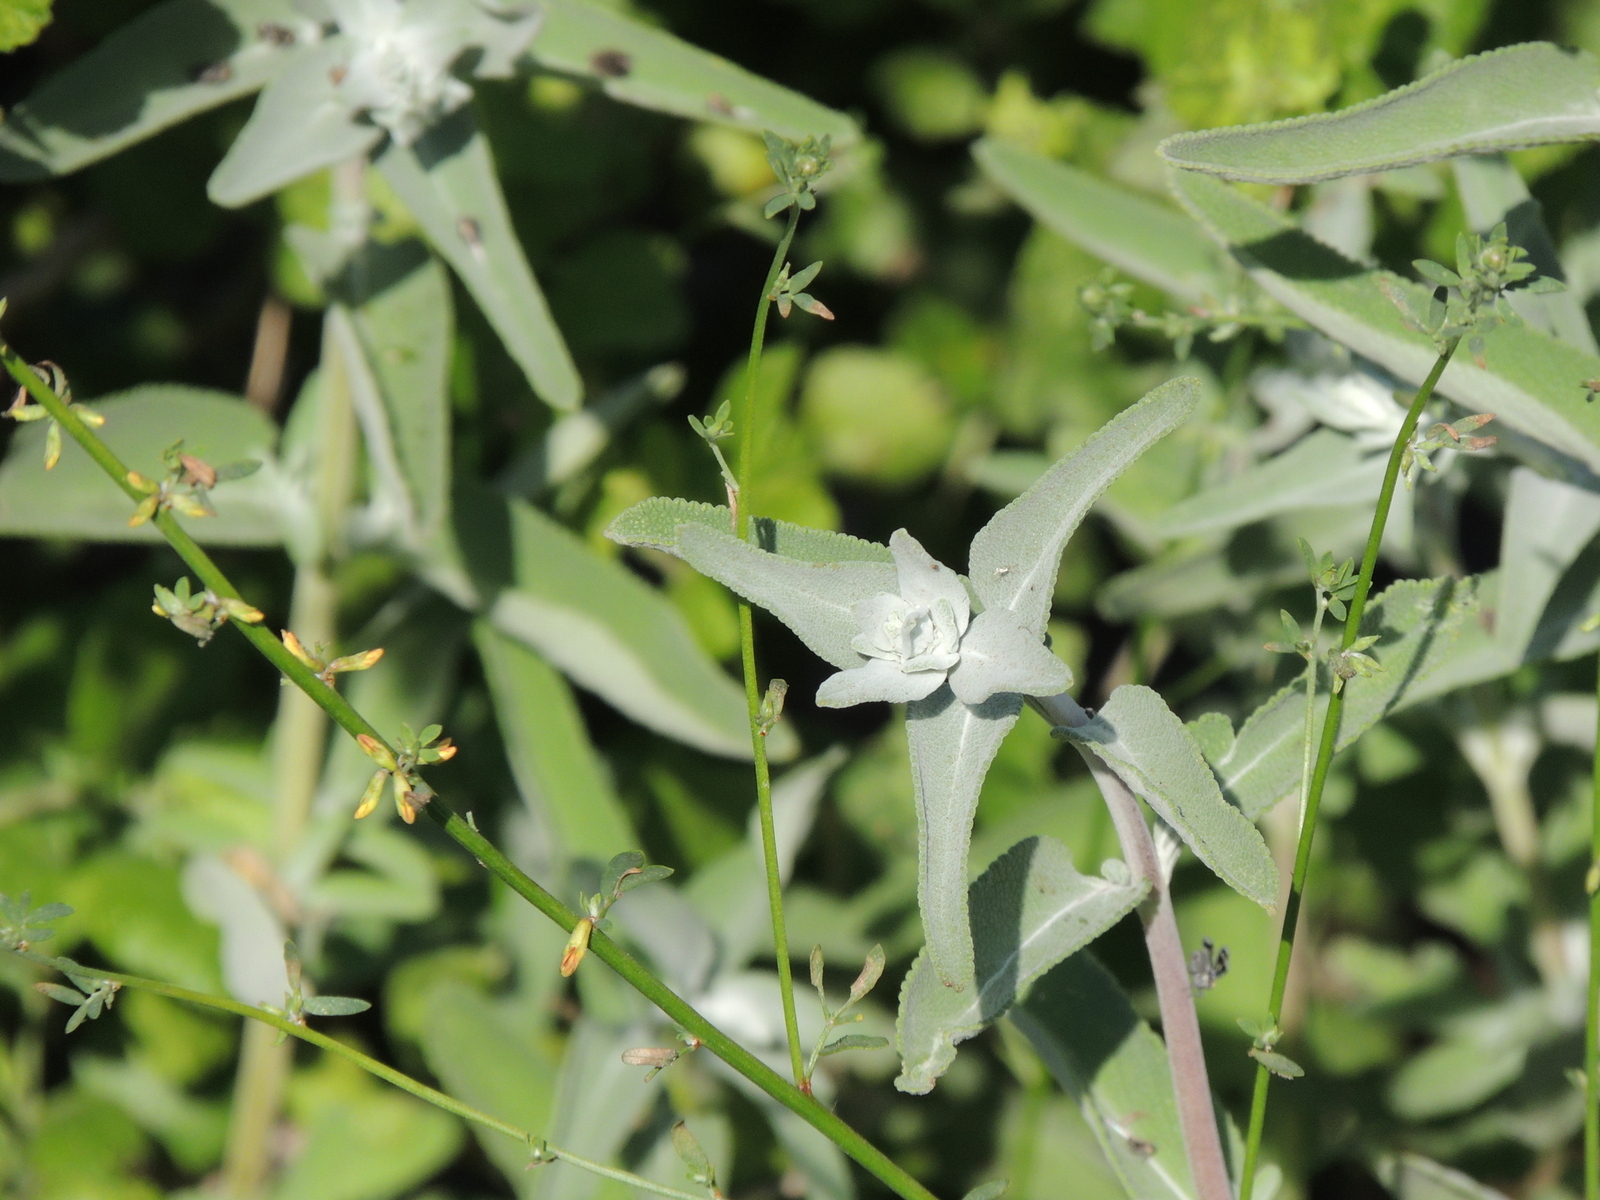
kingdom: Plantae
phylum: Tracheophyta
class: Magnoliopsida
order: Lamiales
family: Lamiaceae
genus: Salvia
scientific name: Salvia leucophylla
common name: Purple sage
